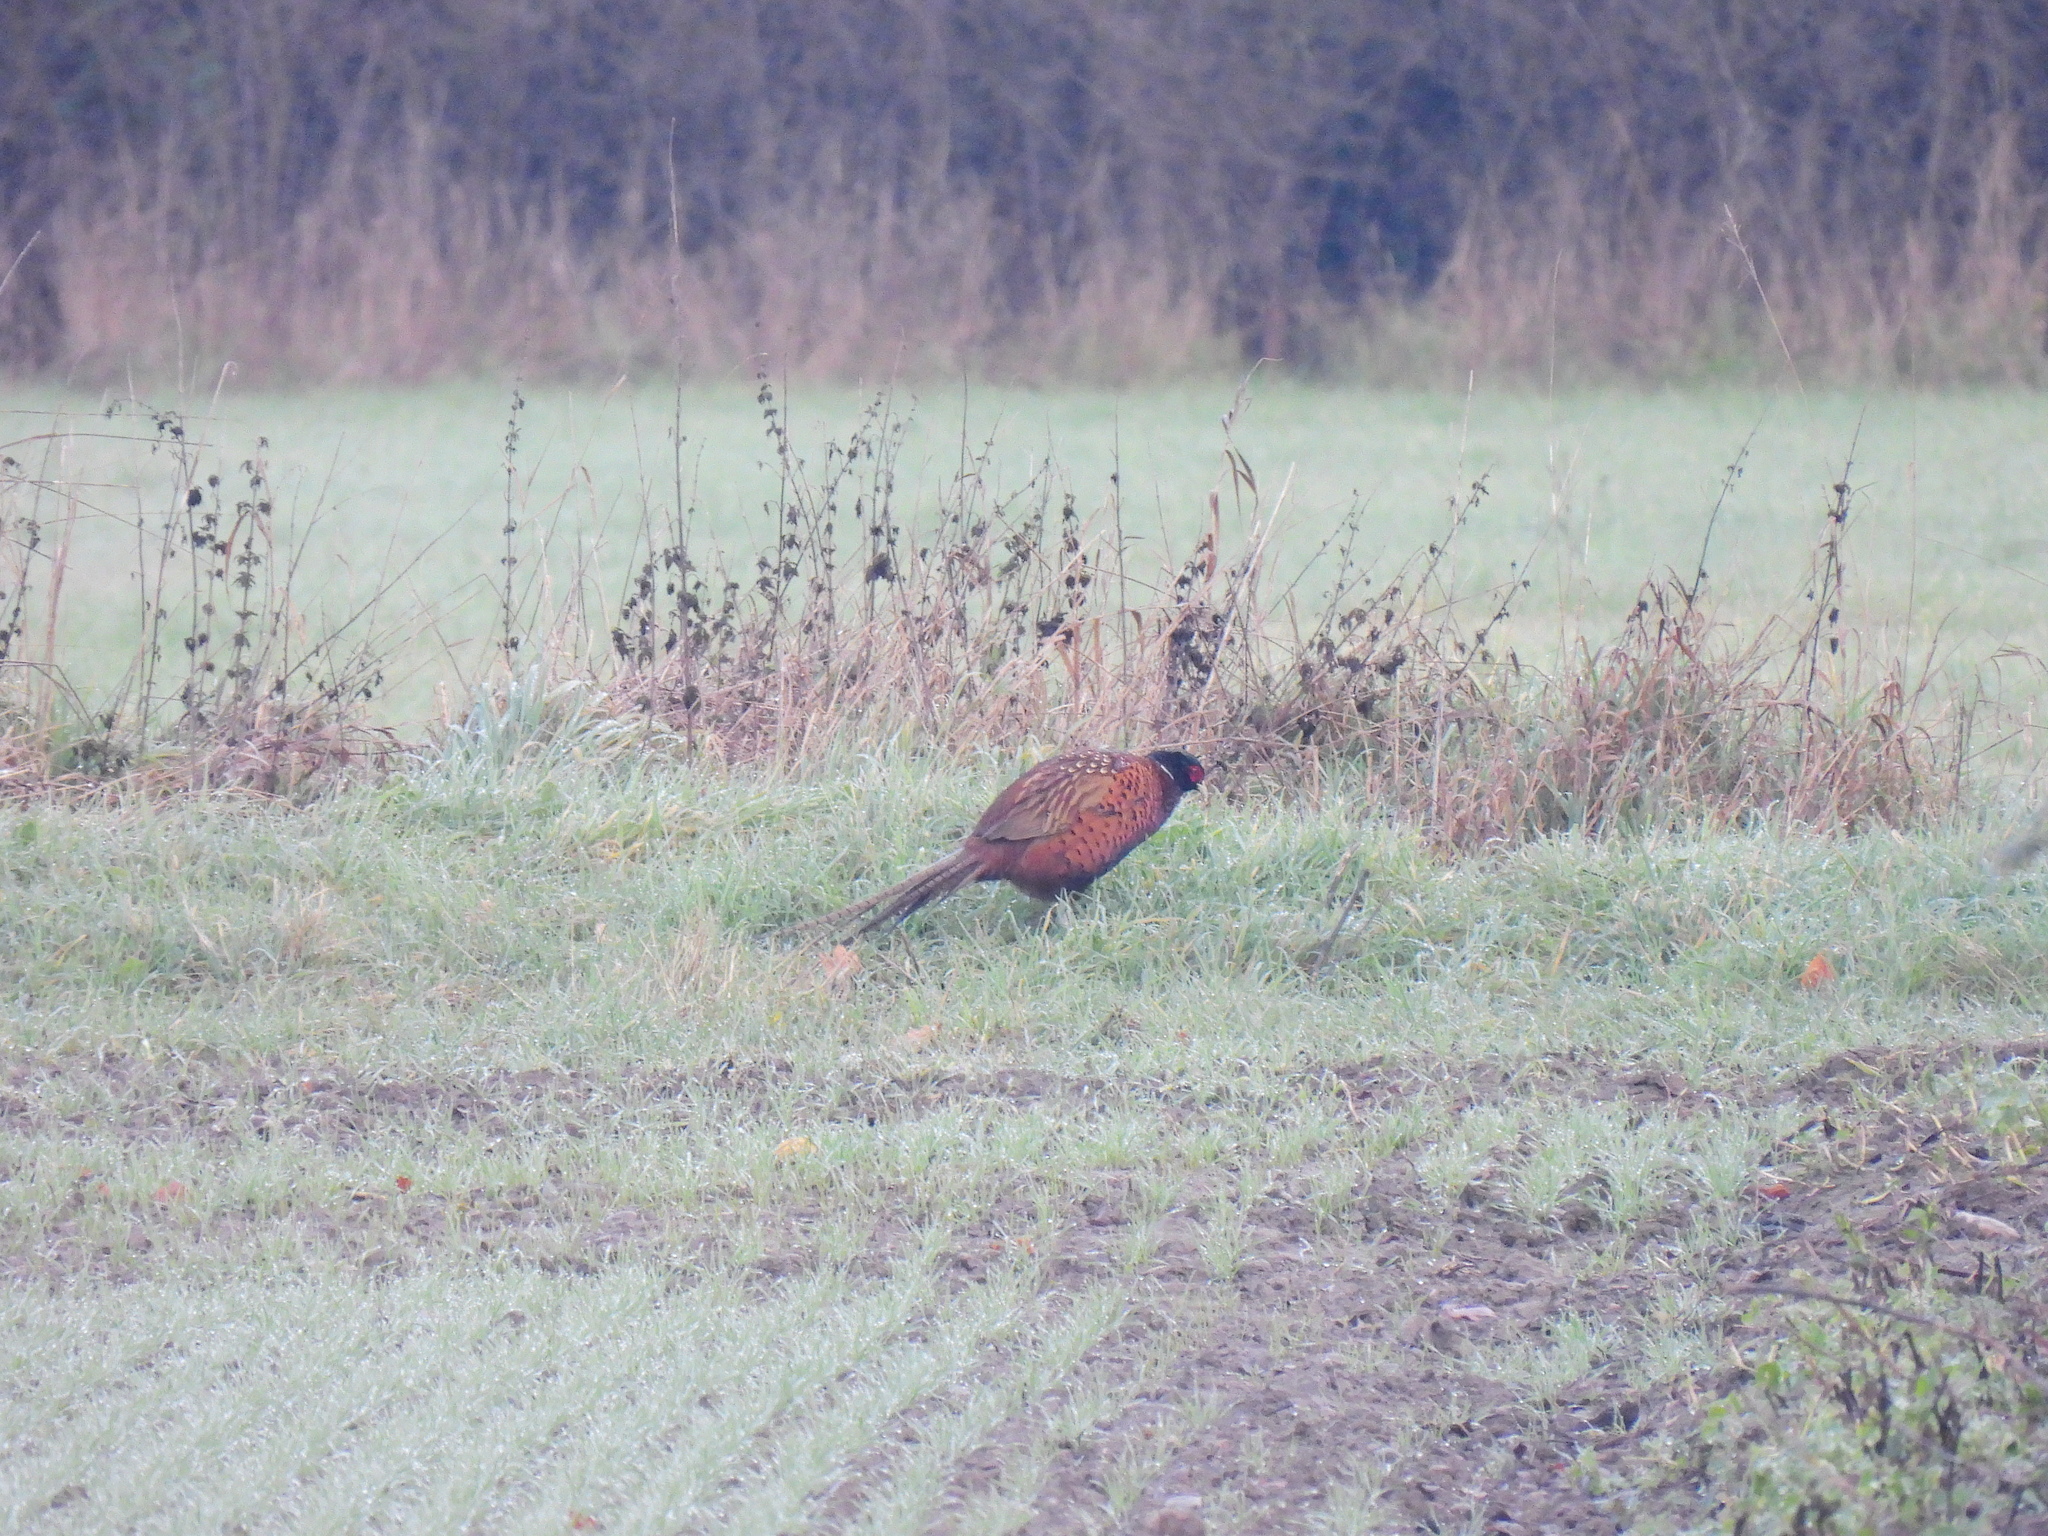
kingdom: Animalia
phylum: Chordata
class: Aves
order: Galliformes
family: Phasianidae
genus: Phasianus
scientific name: Phasianus colchicus
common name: Common pheasant
